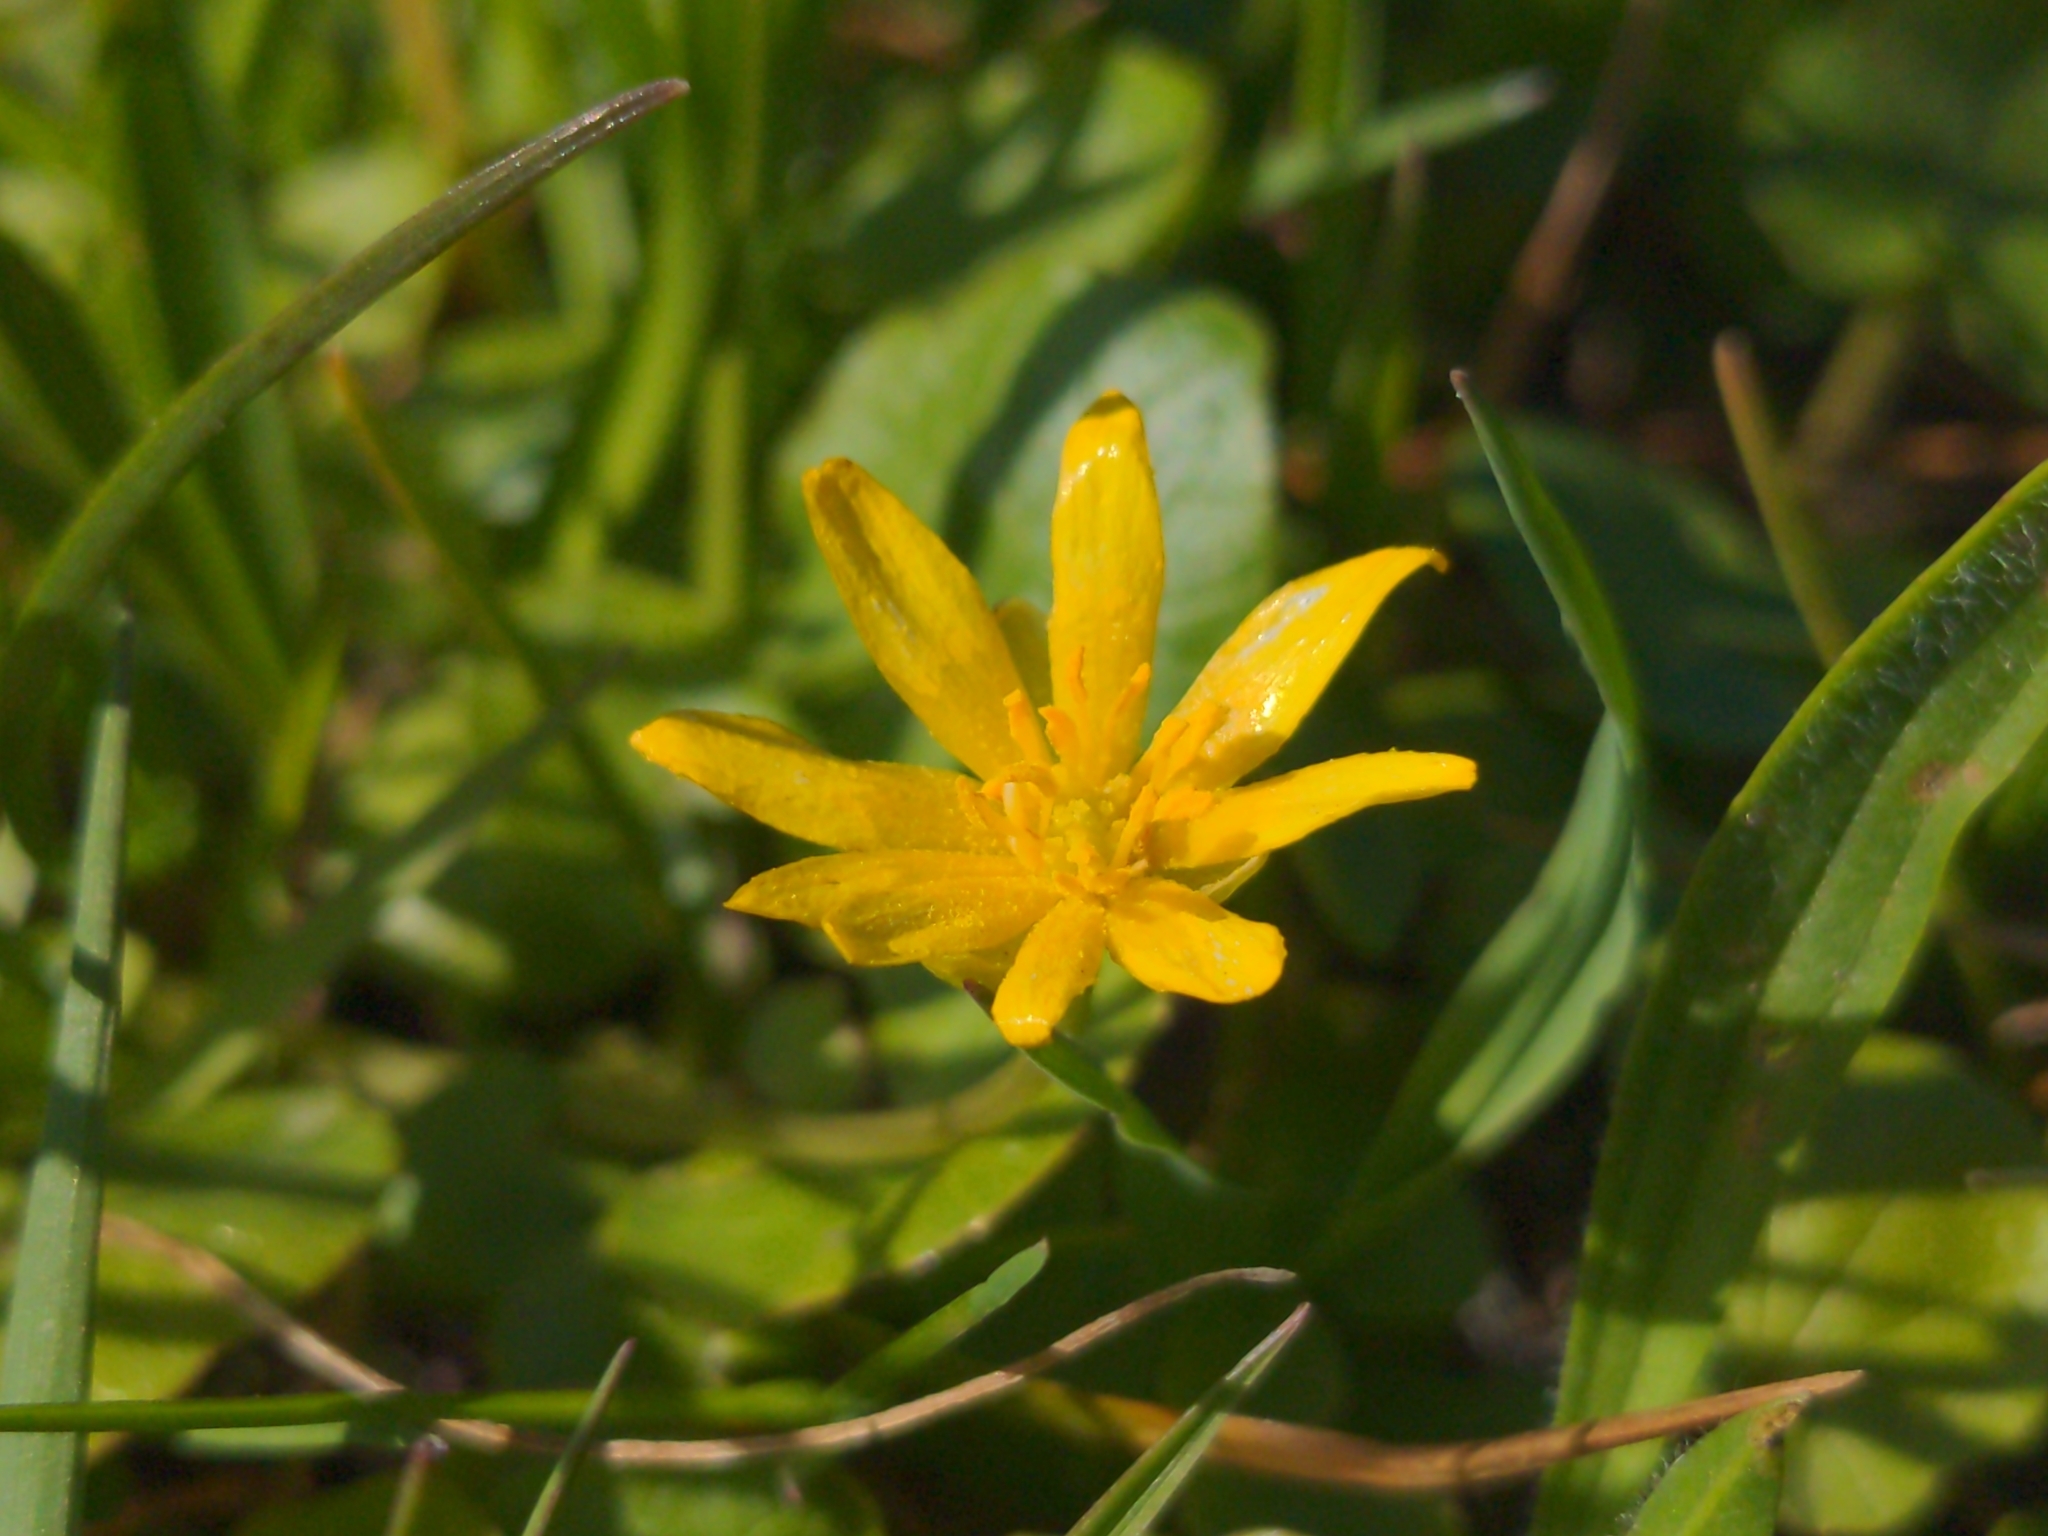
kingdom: Plantae
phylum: Tracheophyta
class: Magnoliopsida
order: Ranunculales
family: Ranunculaceae
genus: Ficaria
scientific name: Ficaria verna
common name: Lesser celandine
